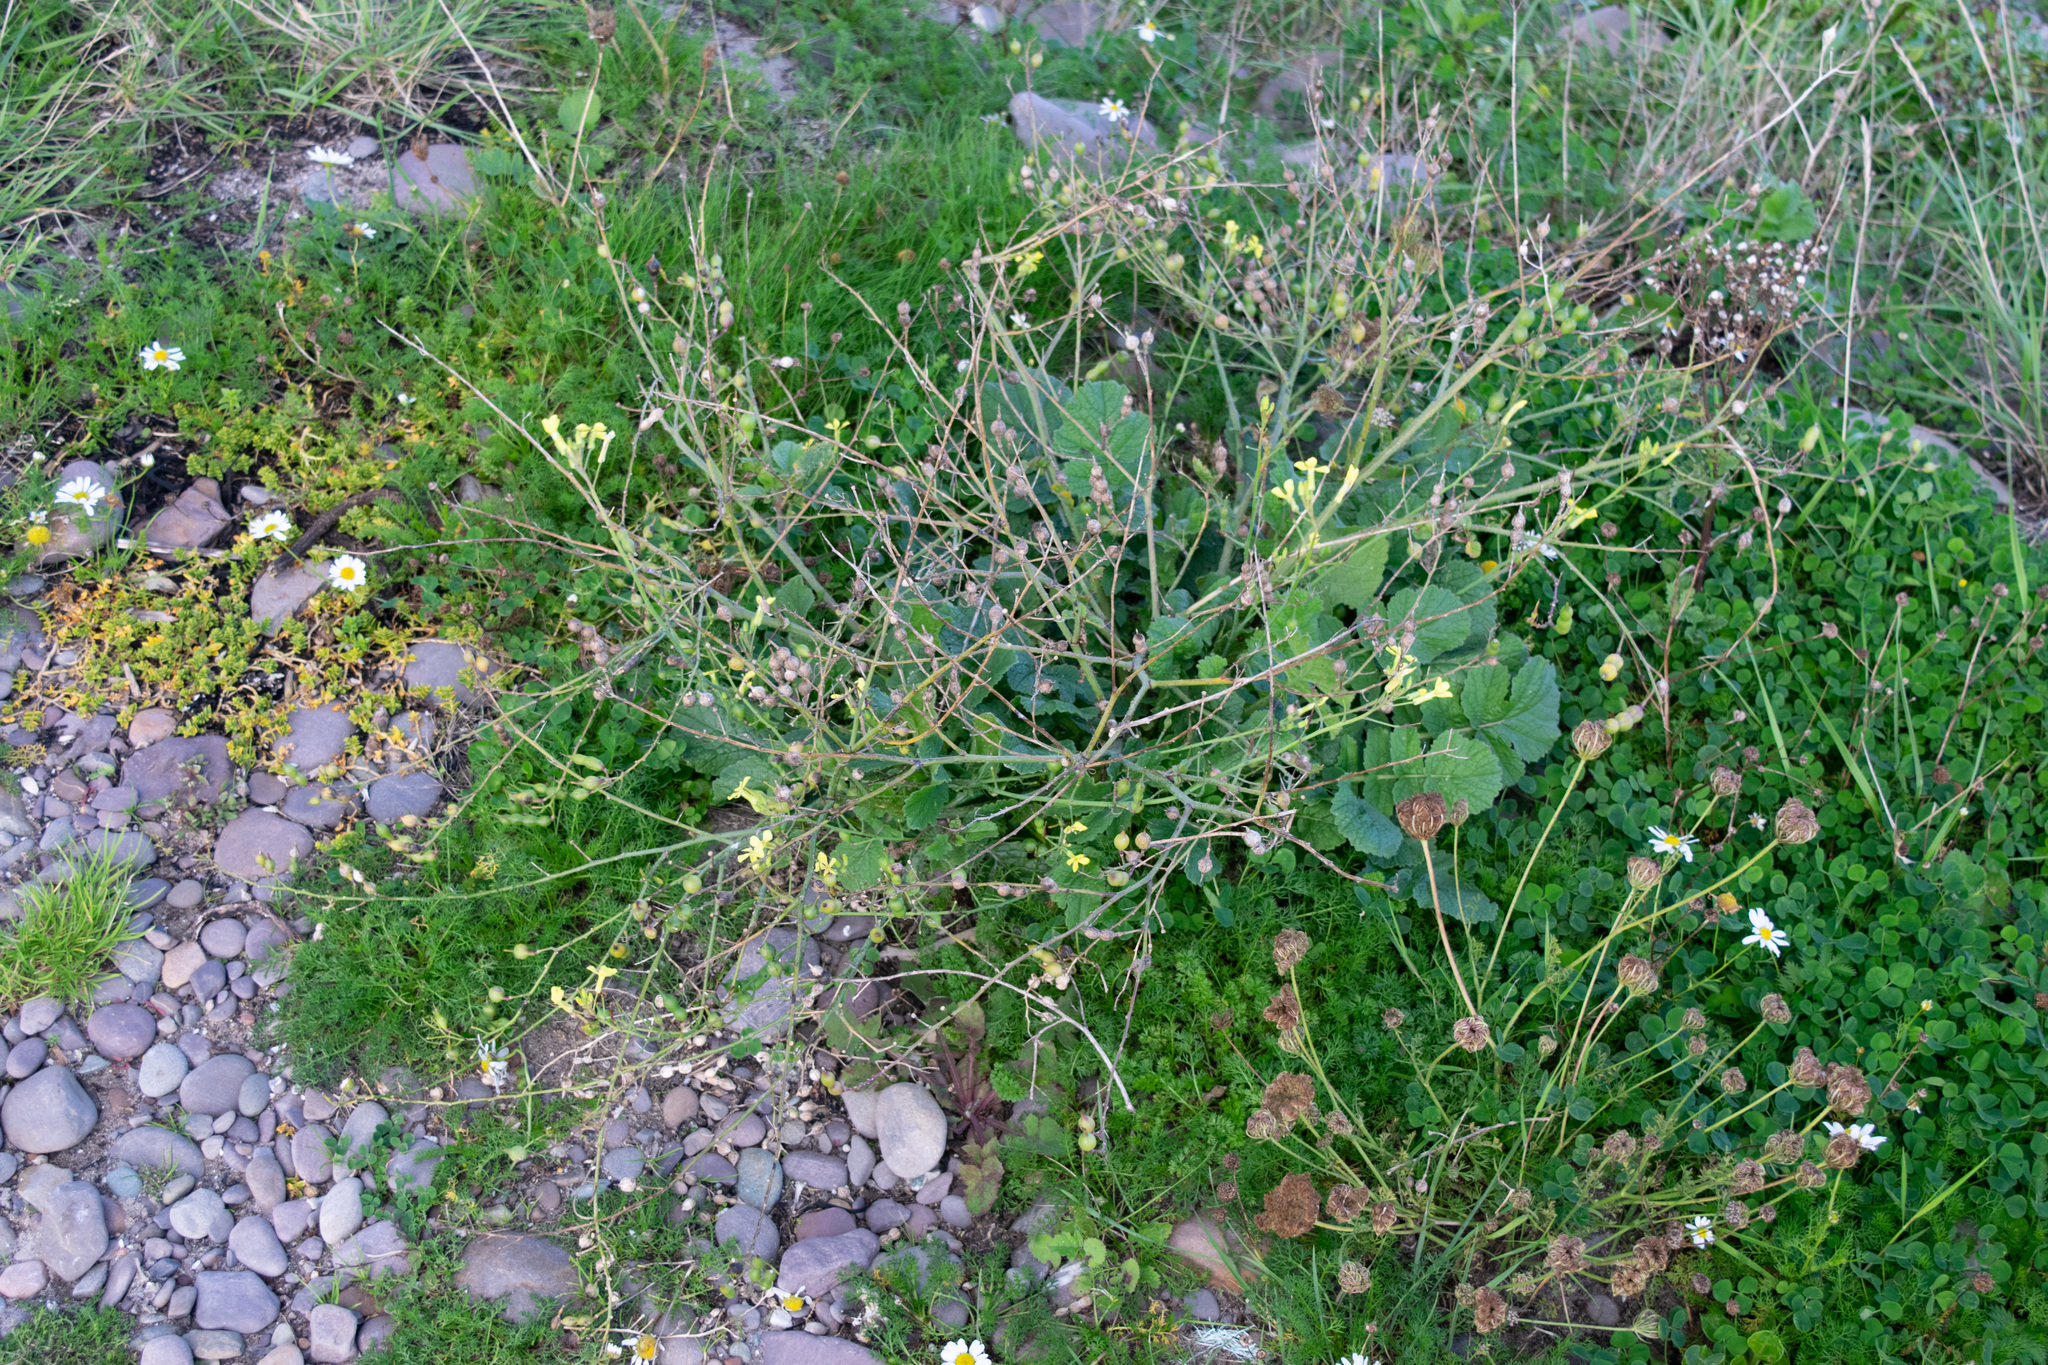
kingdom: Plantae
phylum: Tracheophyta
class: Magnoliopsida
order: Brassicales
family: Brassicaceae
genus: Raphanus
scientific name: Raphanus raphanistrum
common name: Wild radish
